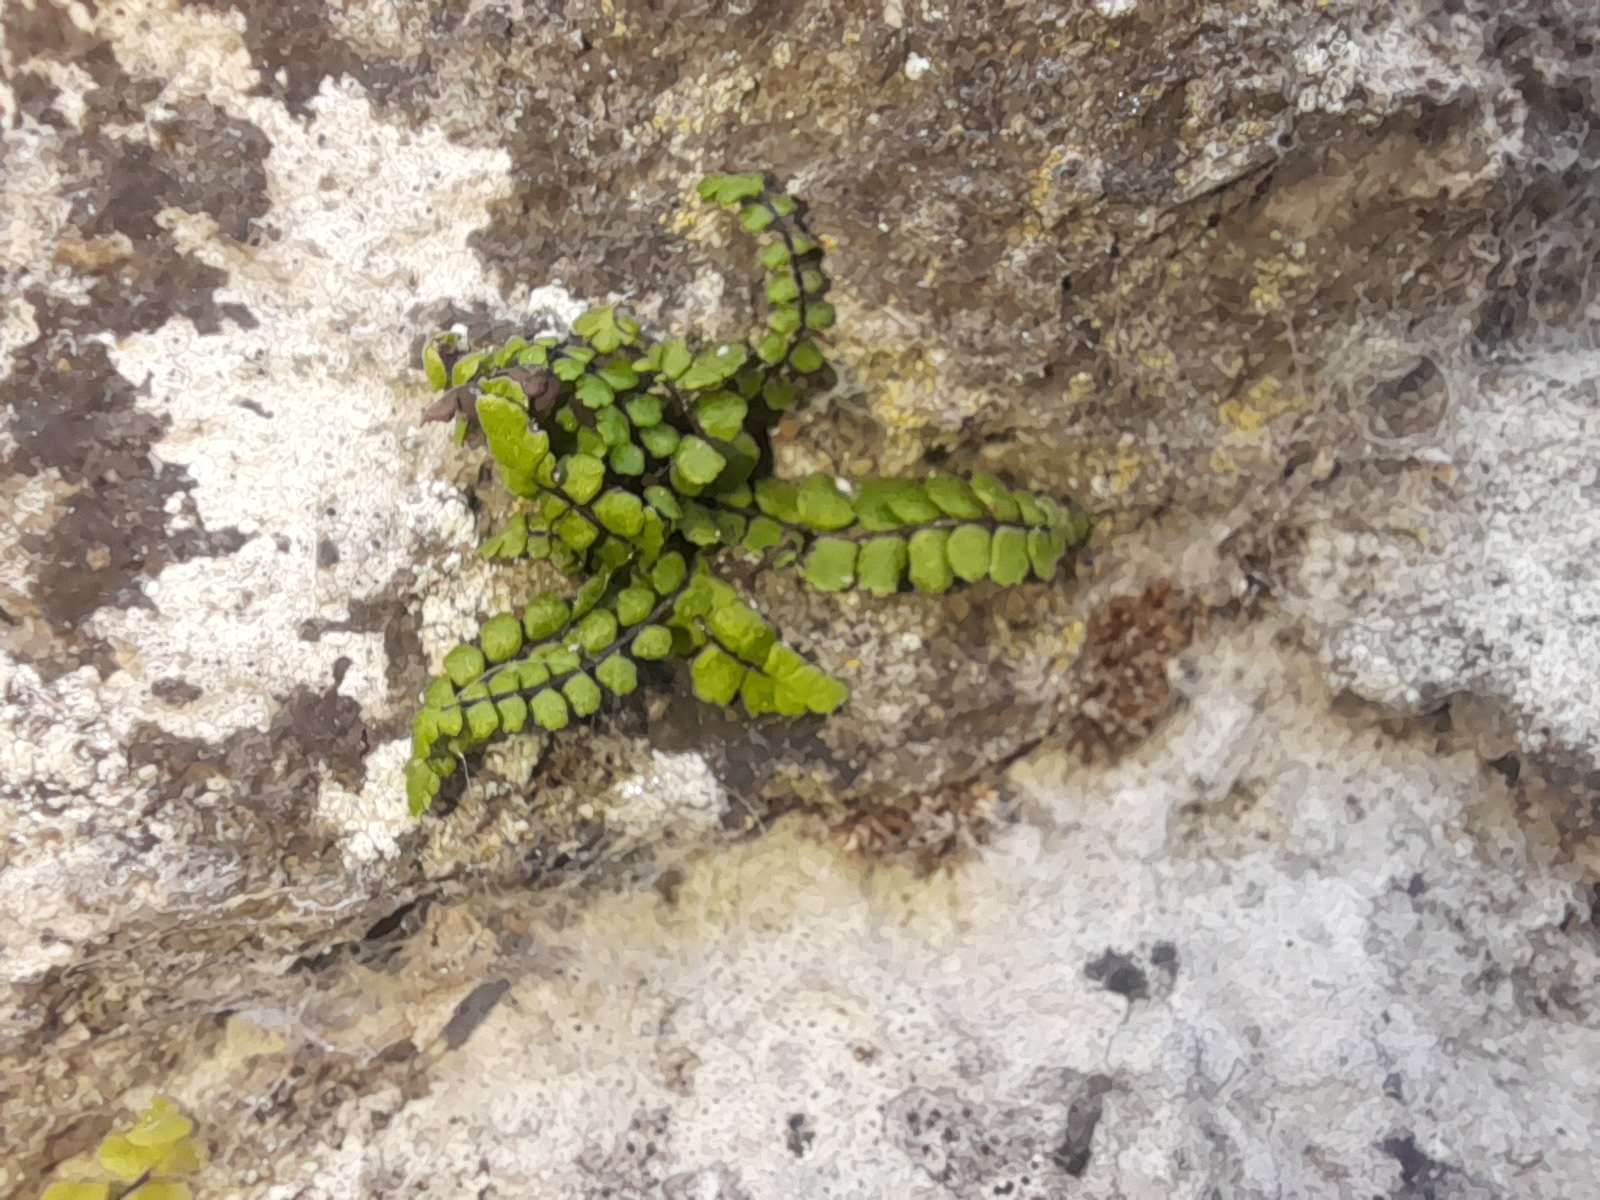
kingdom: Plantae
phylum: Tracheophyta
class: Polypodiopsida
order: Polypodiales
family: Aspleniaceae
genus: Asplenium
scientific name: Asplenium trichomanes
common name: Maidenhair spleenwort
